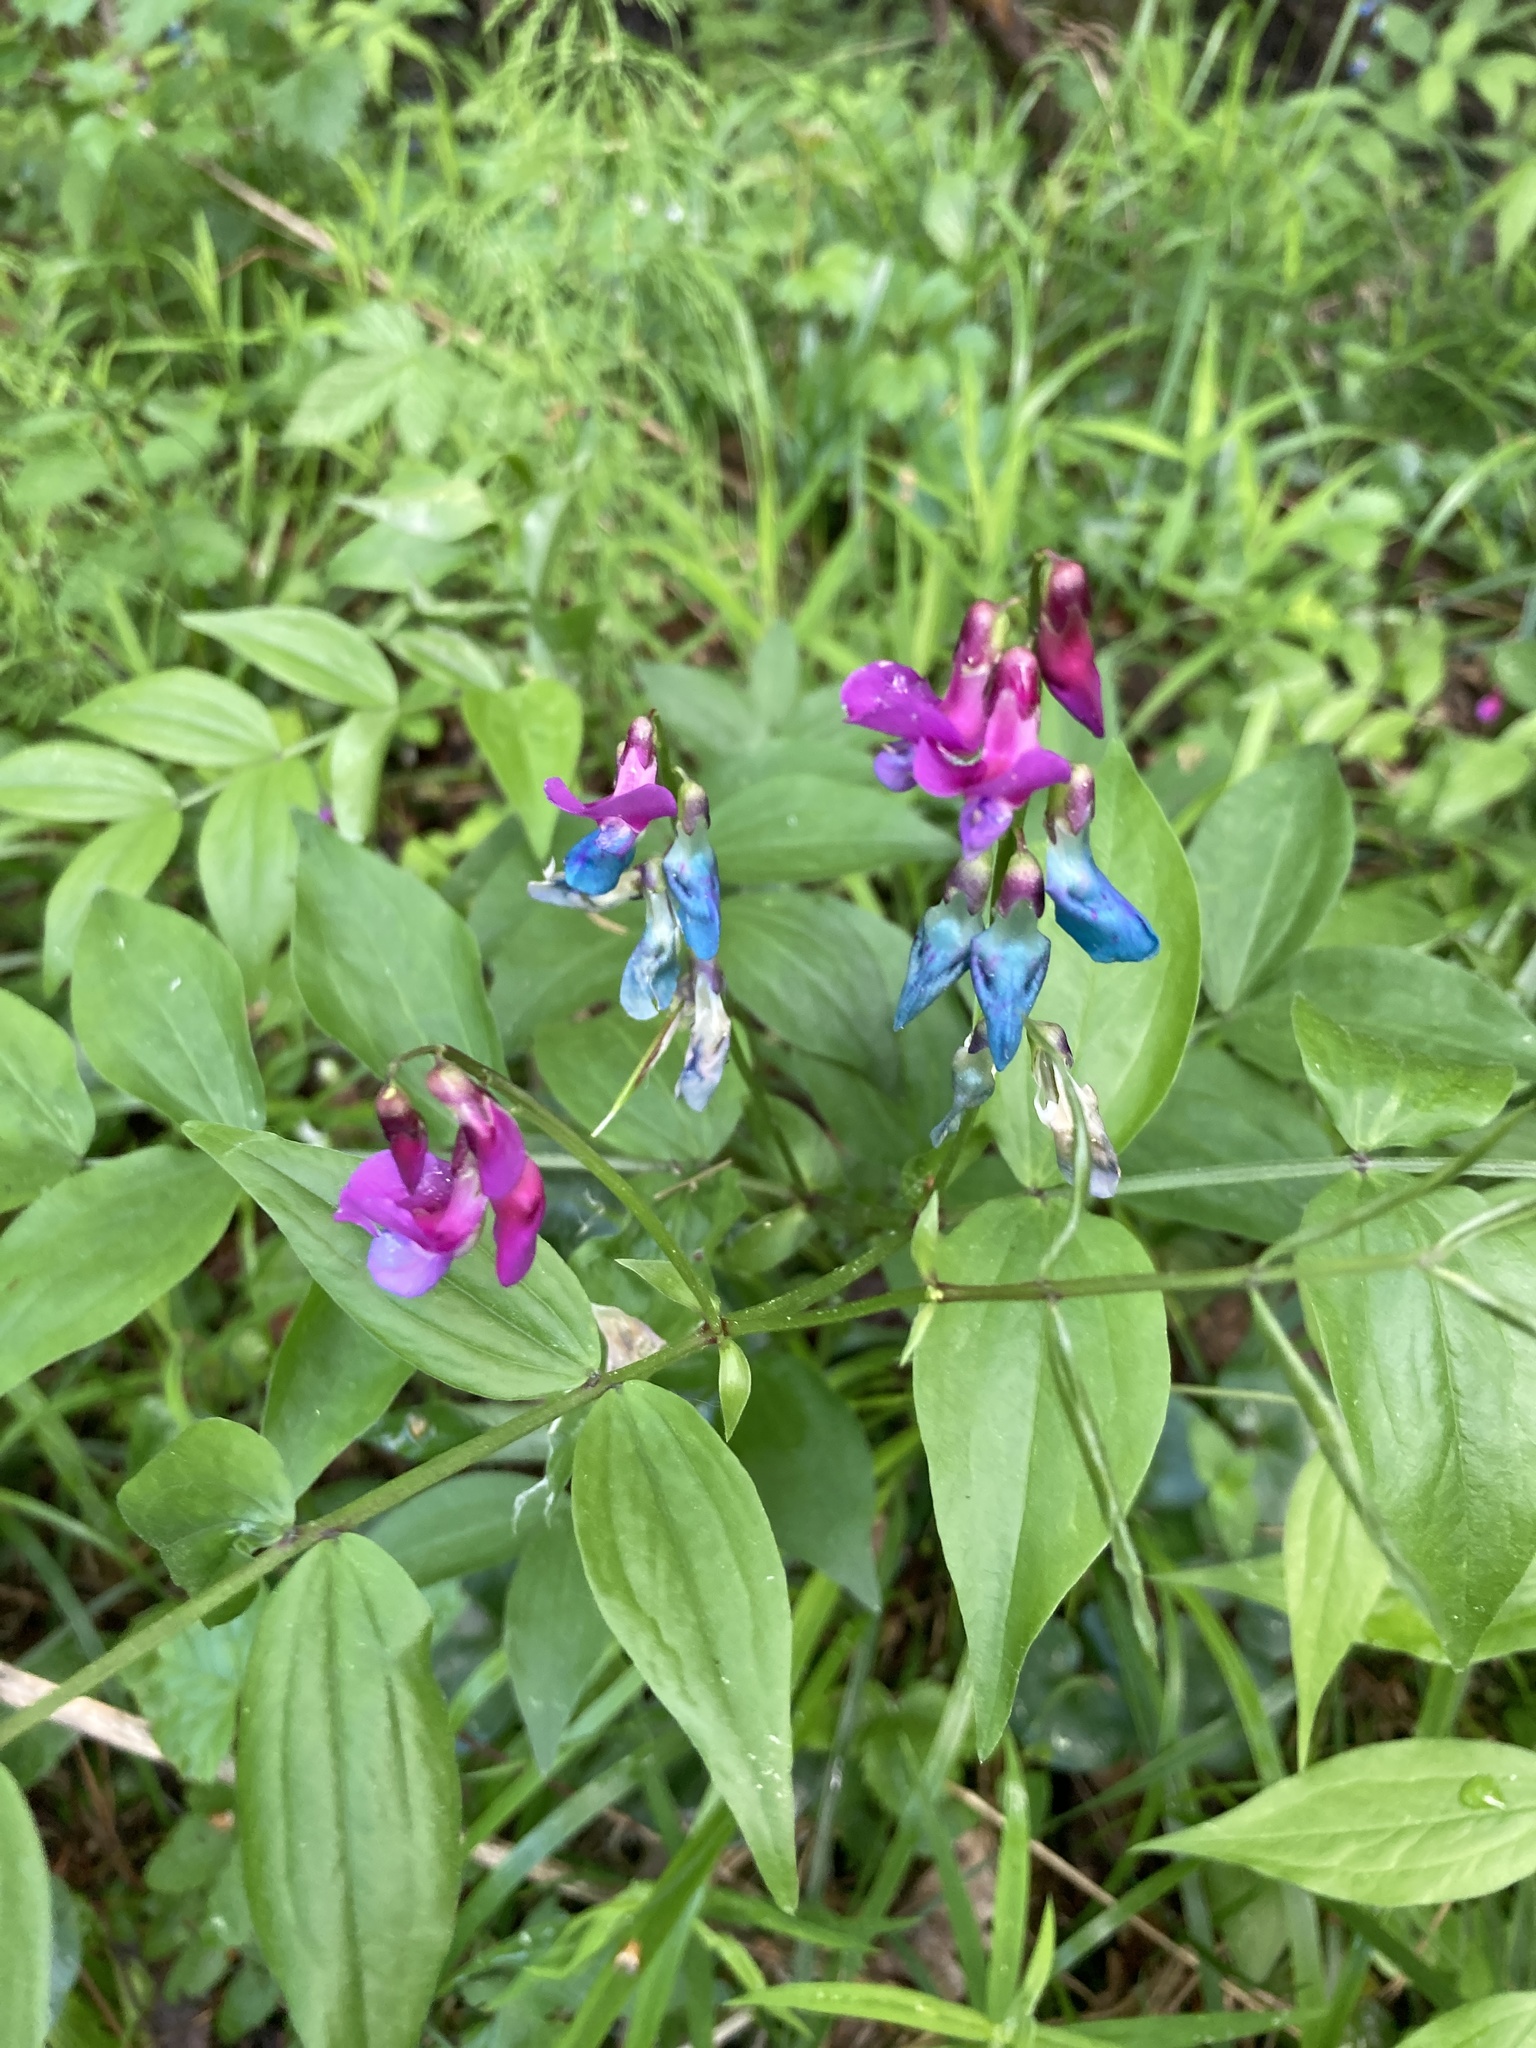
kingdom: Plantae
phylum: Tracheophyta
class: Magnoliopsida
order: Fabales
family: Fabaceae
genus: Lathyrus
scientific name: Lathyrus vernus
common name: Spring pea
